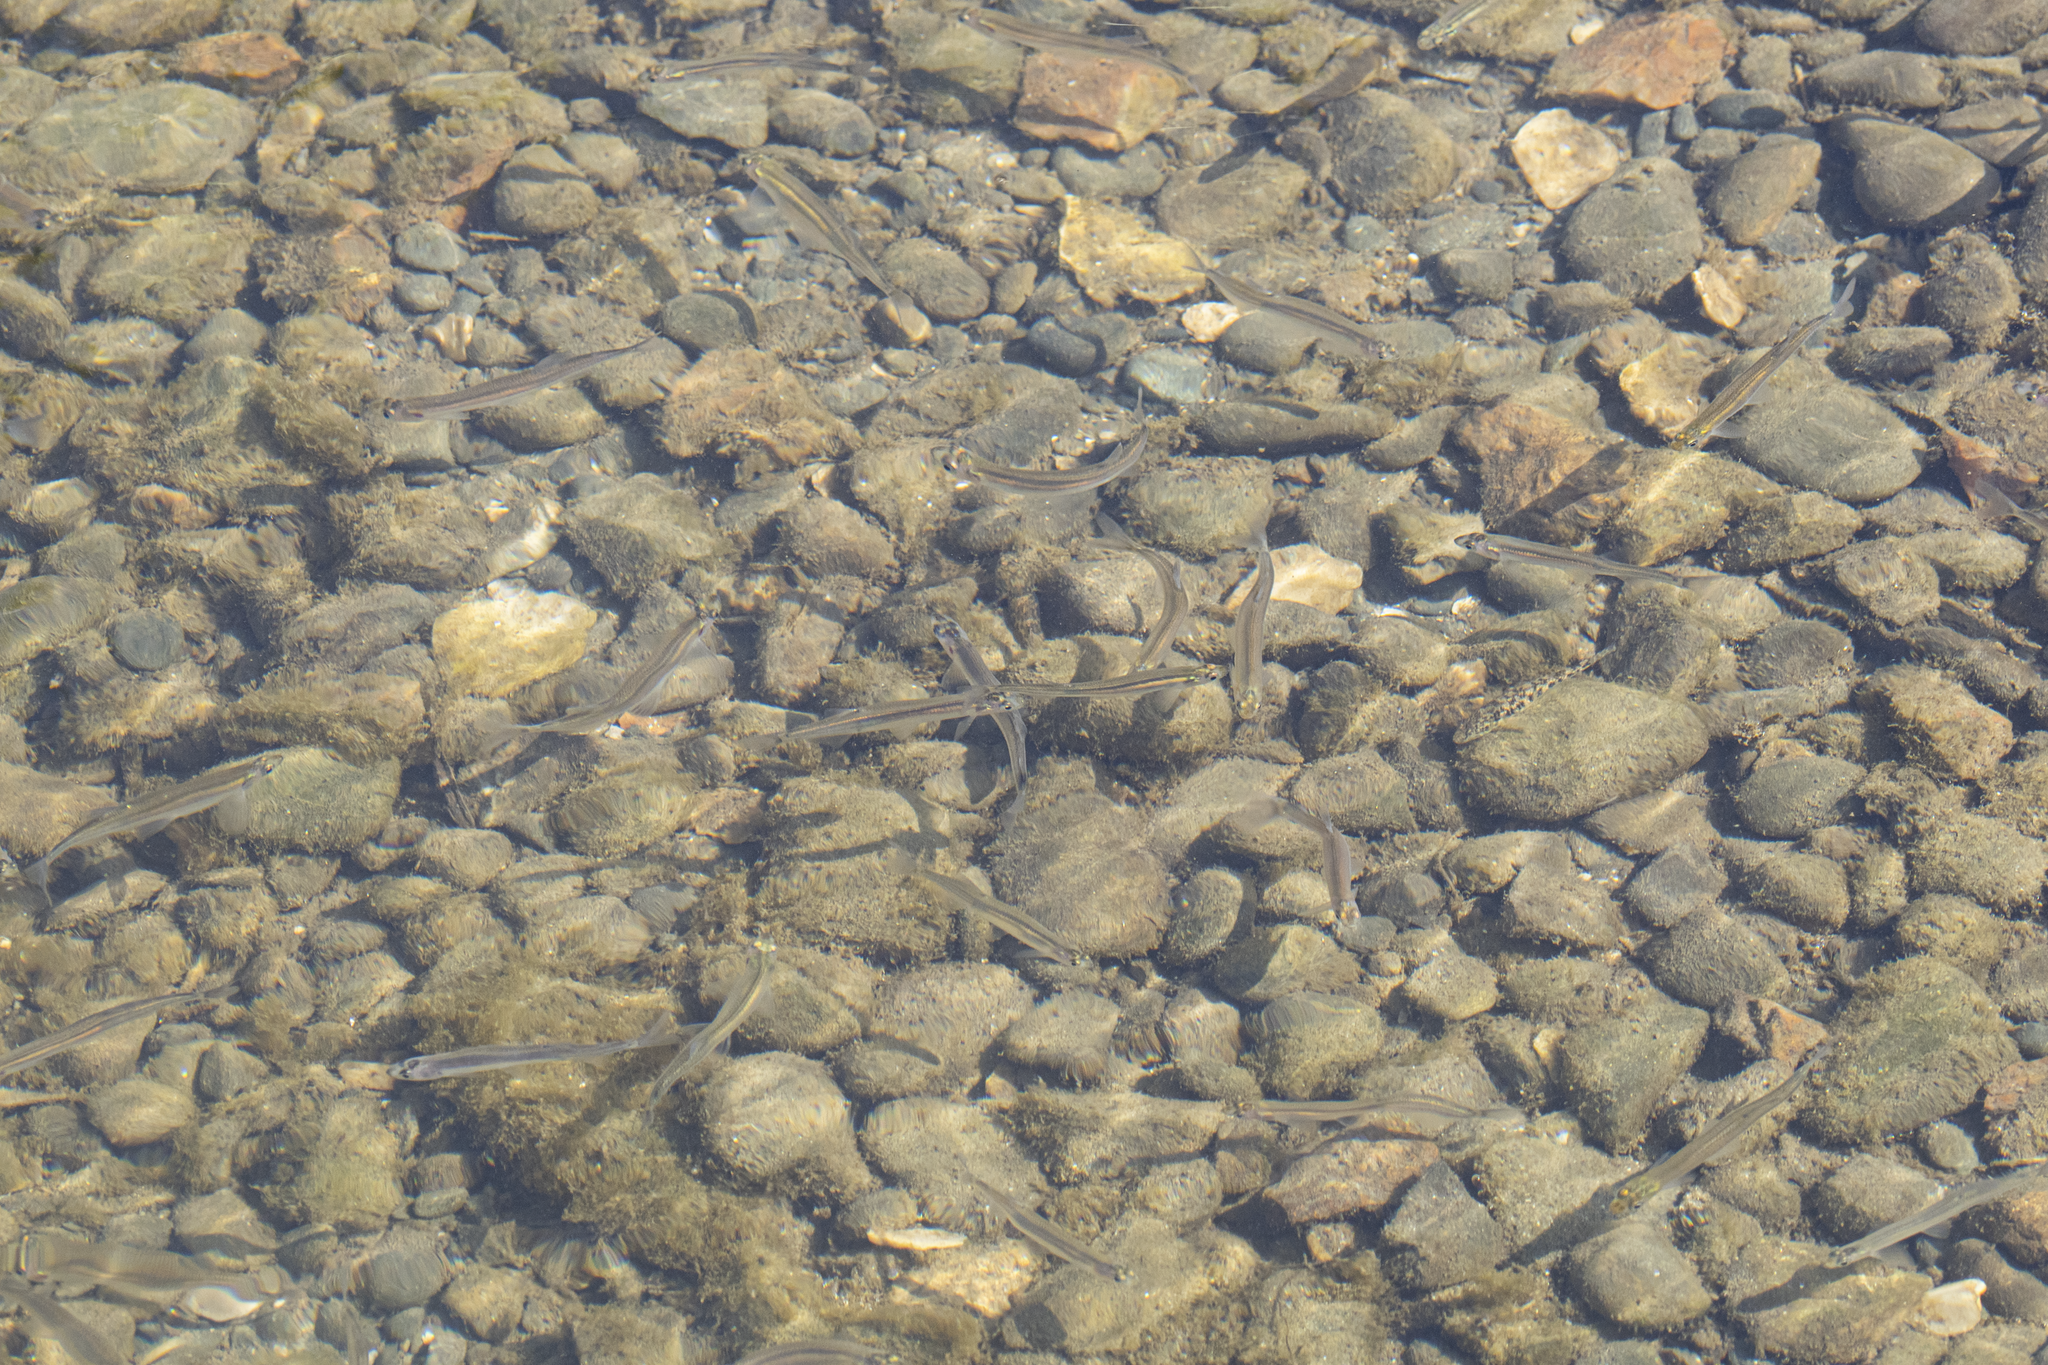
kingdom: Animalia
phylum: Chordata
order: Osmeriformes
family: Retropinnidae
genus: Retropinna
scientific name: Retropinna retropinna
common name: Common smelt
